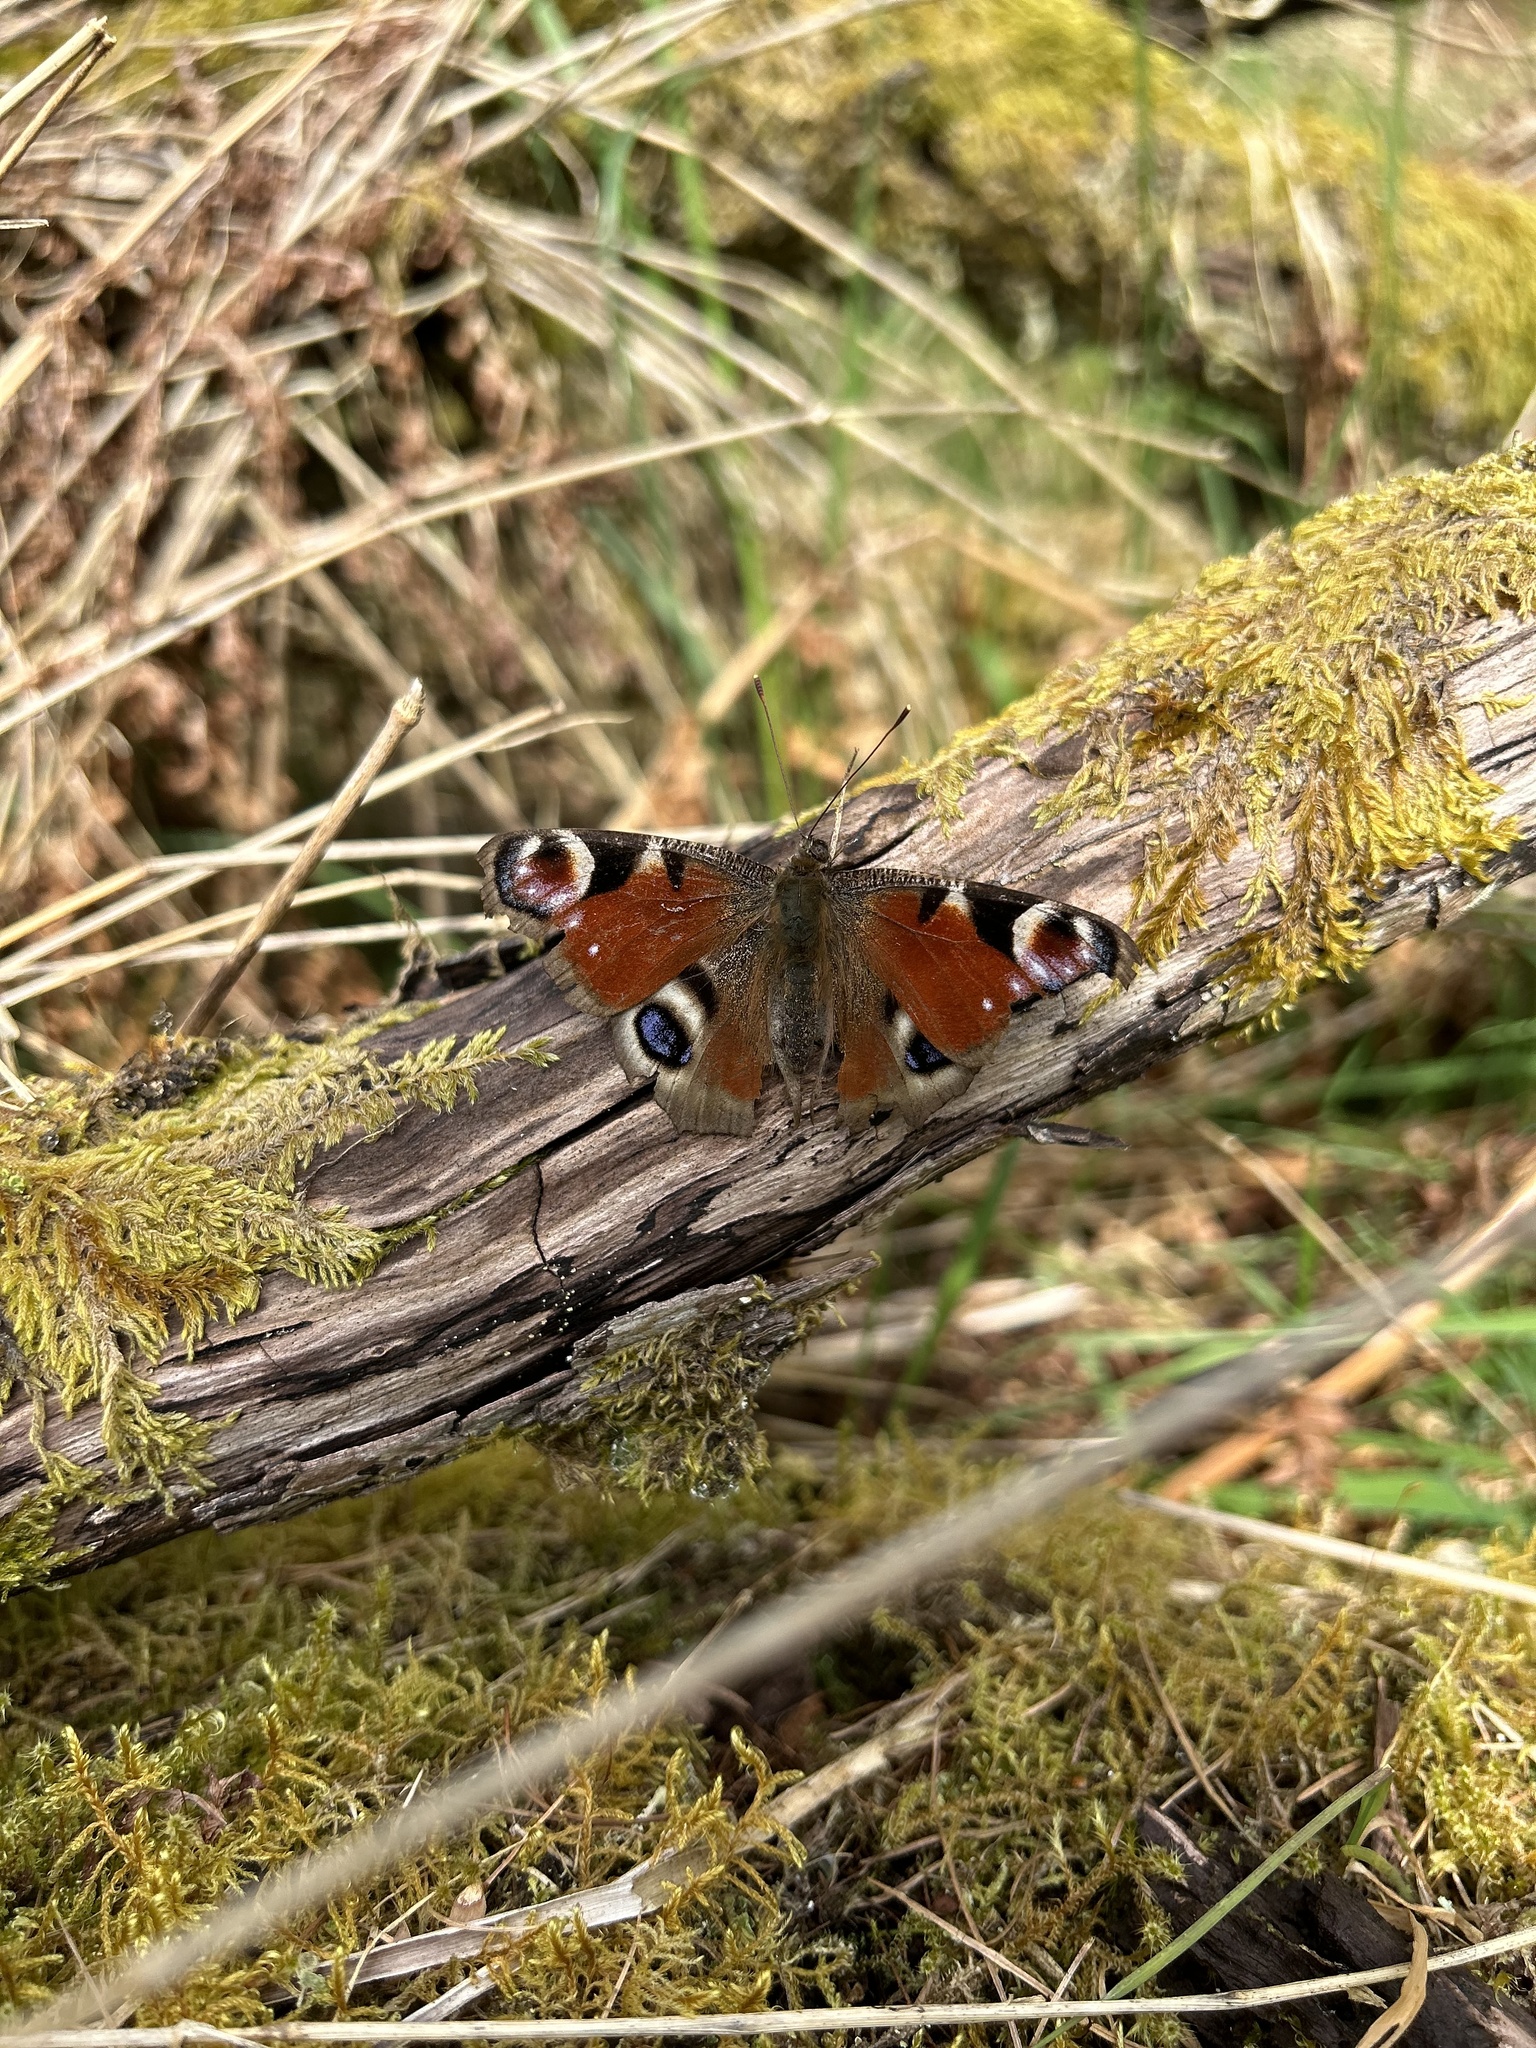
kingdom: Animalia
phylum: Arthropoda
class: Insecta
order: Lepidoptera
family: Nymphalidae
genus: Aglais
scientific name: Aglais io
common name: Peacock
